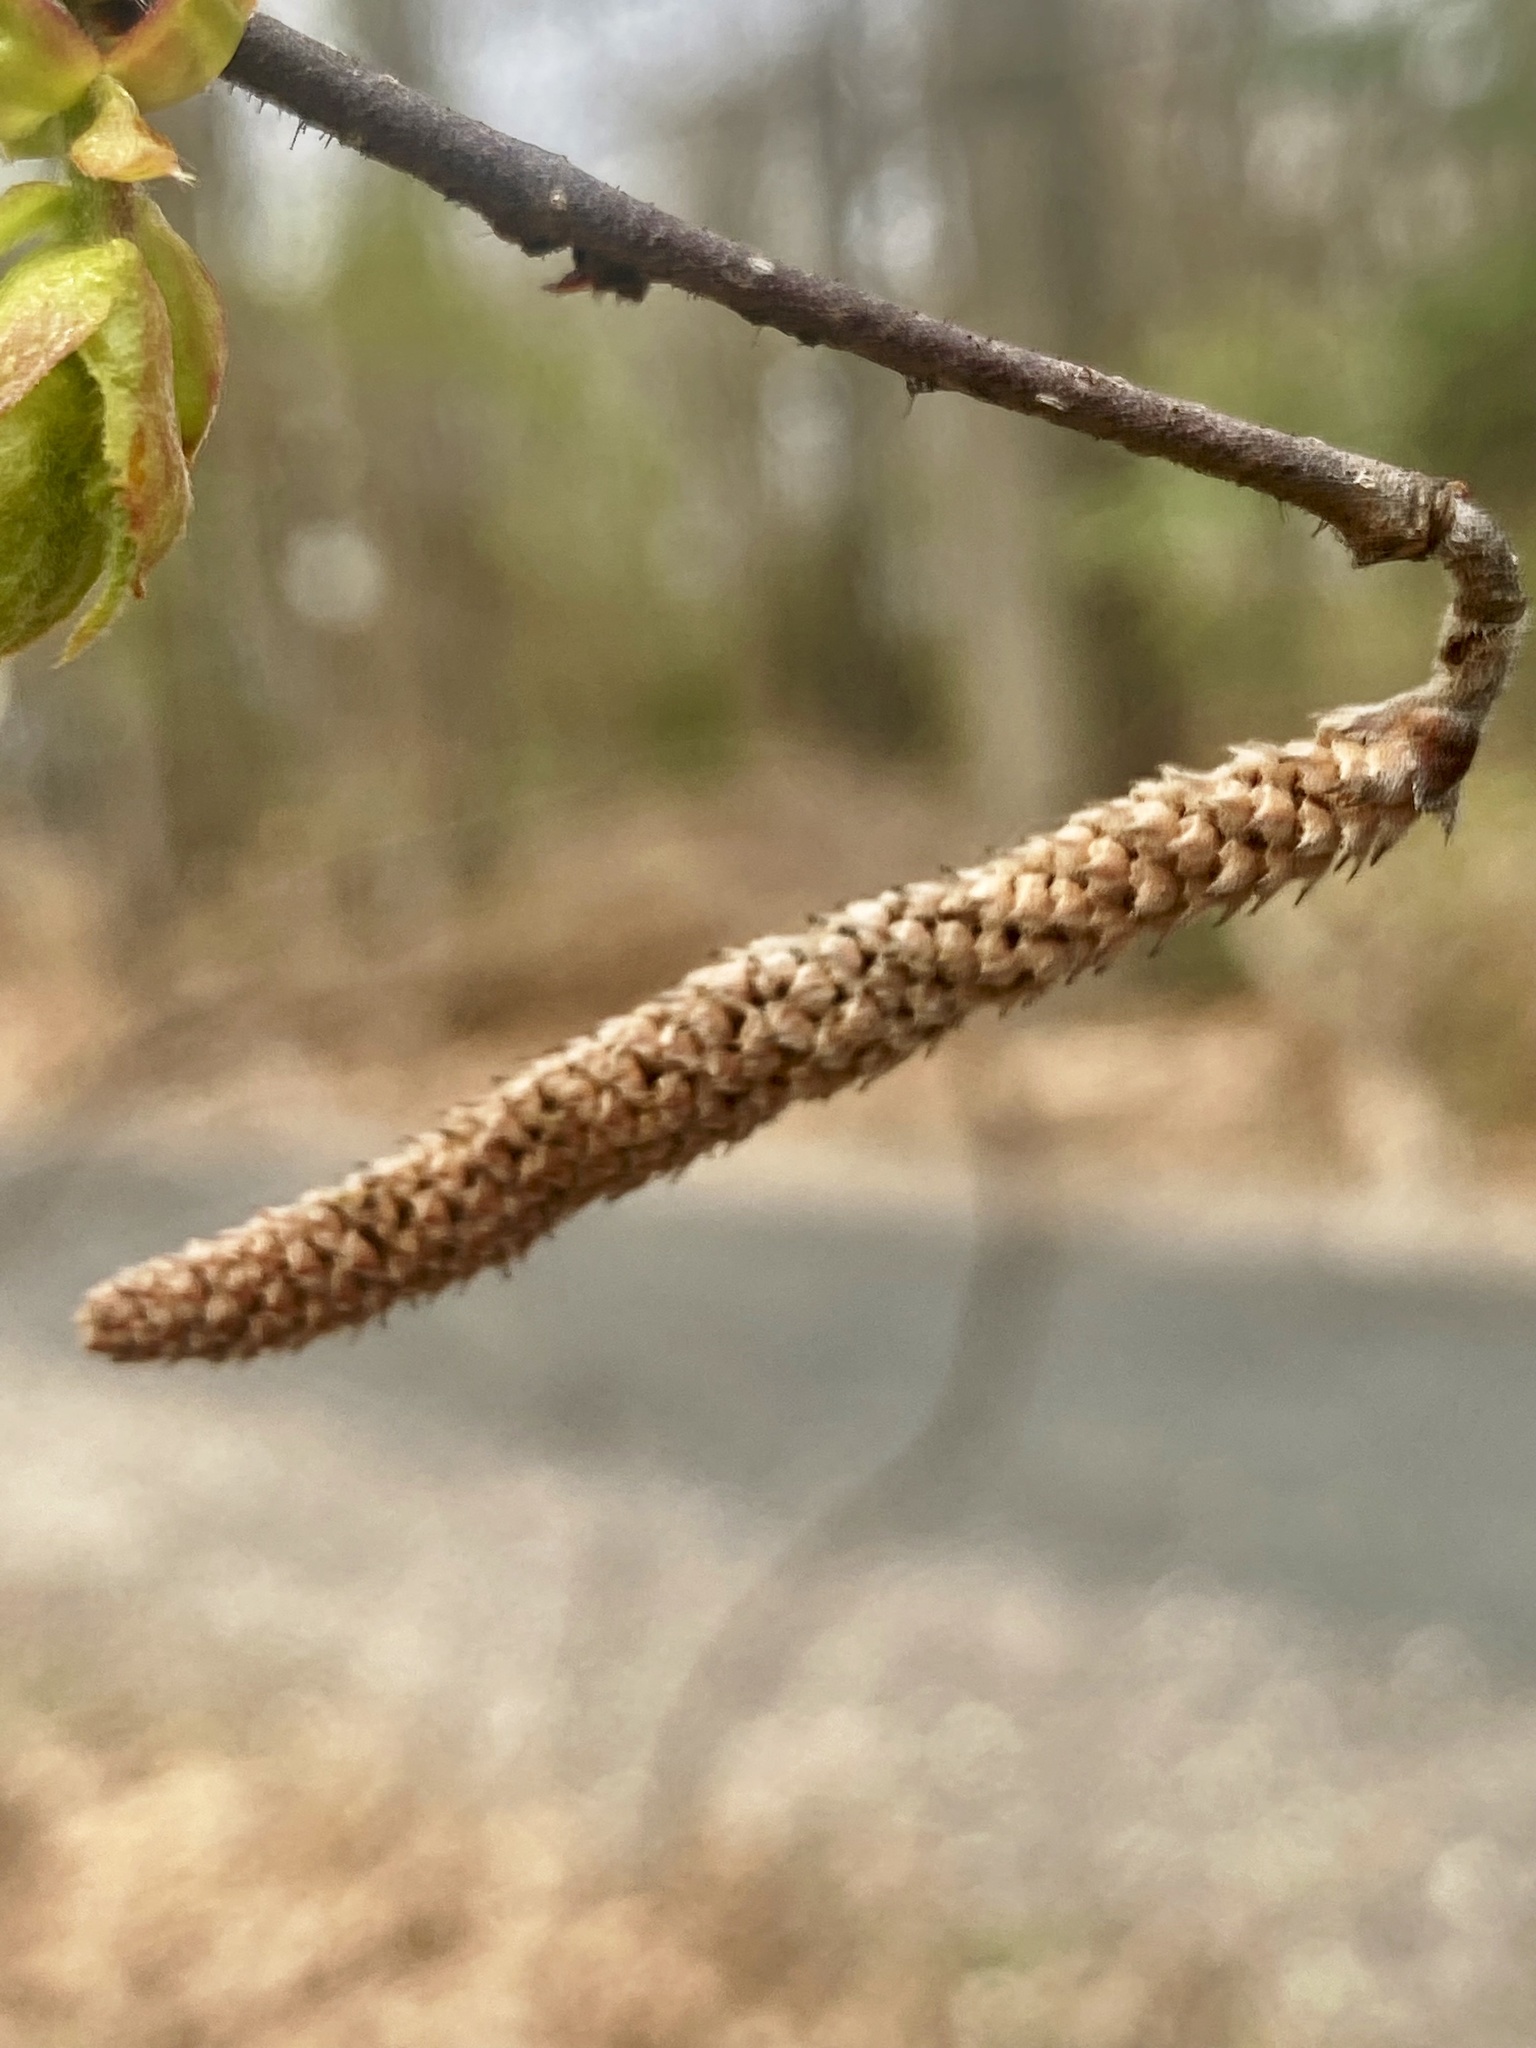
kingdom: Plantae
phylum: Tracheophyta
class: Magnoliopsida
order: Fagales
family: Betulaceae
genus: Corylus
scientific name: Corylus americana
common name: American hazel
